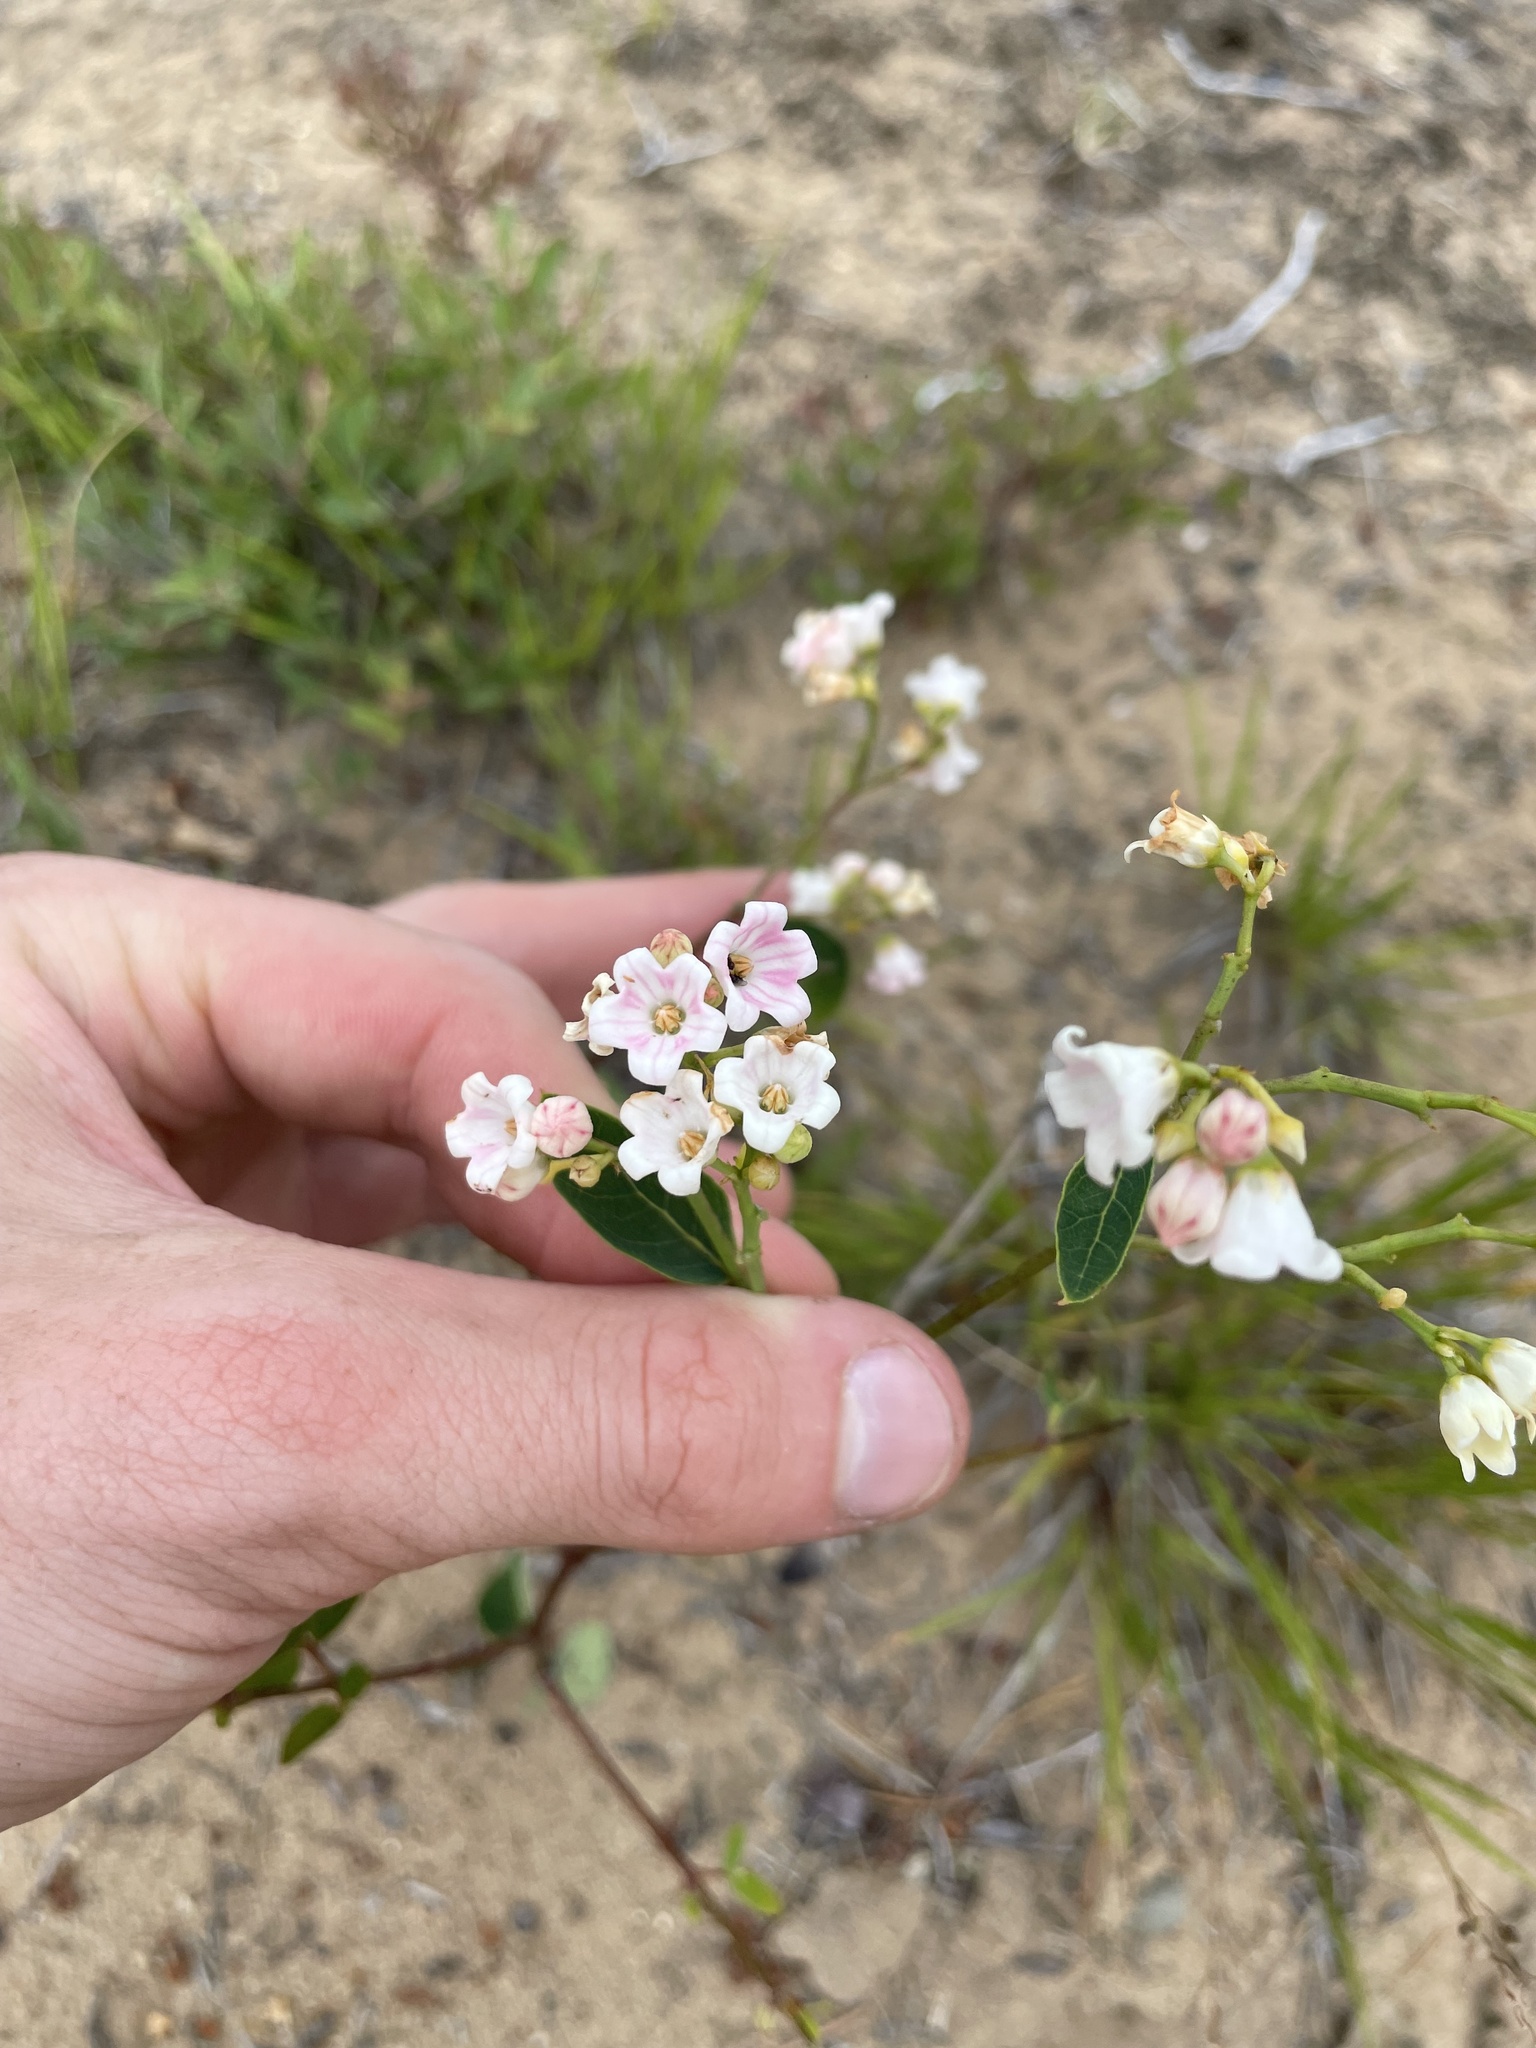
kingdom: Plantae
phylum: Tracheophyta
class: Magnoliopsida
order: Gentianales
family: Apocynaceae
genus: Apocynum
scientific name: Apocynum androsaemifolium
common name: Spreading dogbane
